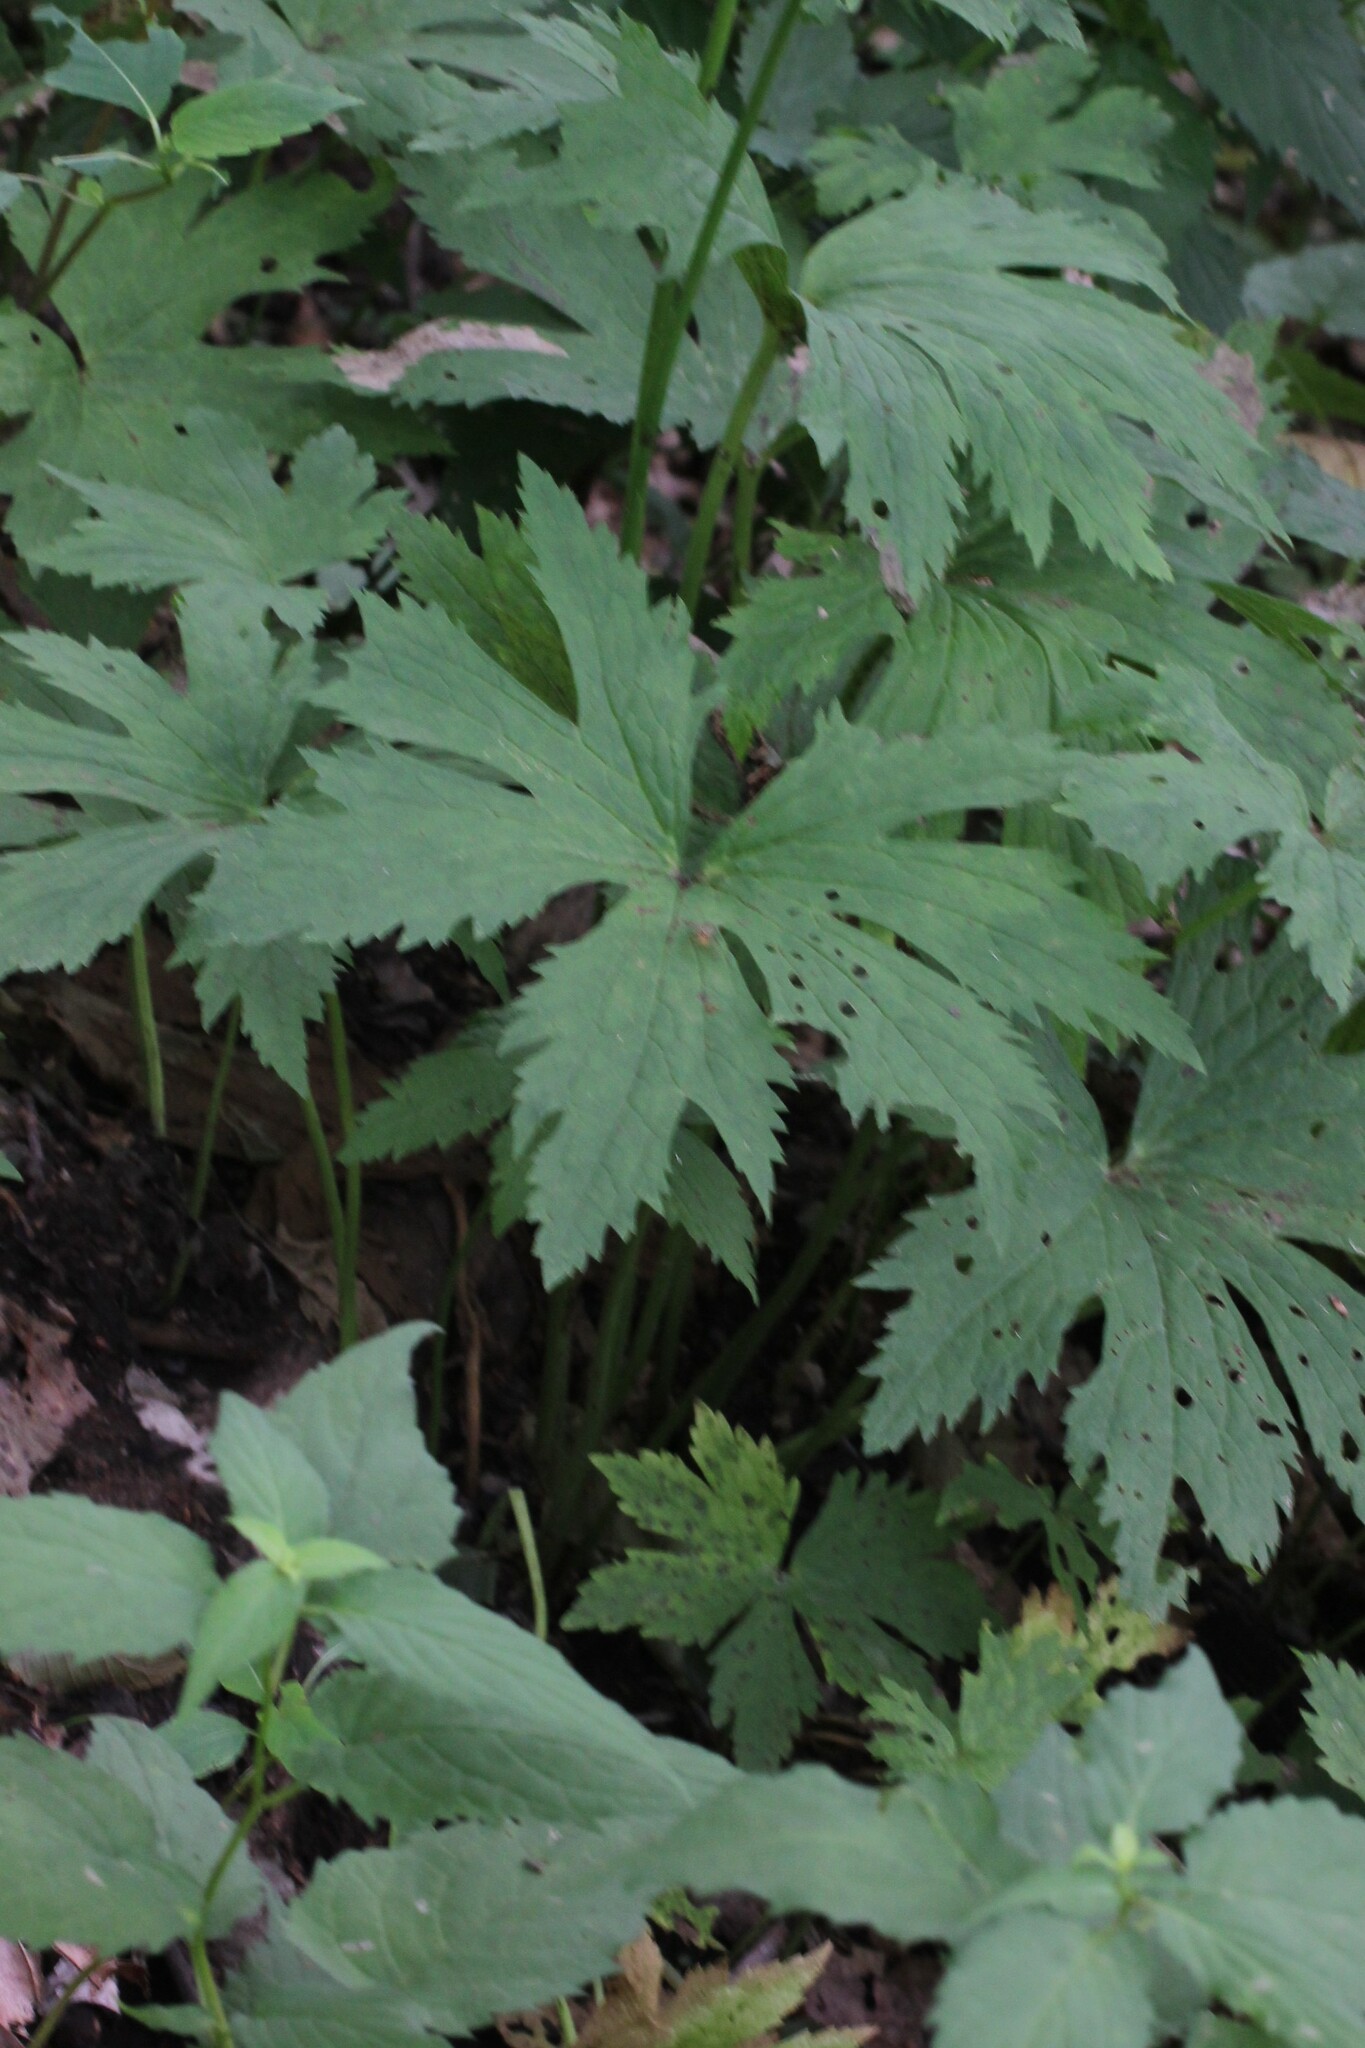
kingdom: Plantae
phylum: Tracheophyta
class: Magnoliopsida
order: Ranunculales
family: Ranunculaceae
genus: Trautvetteria
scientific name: Trautvetteria carolinensis
